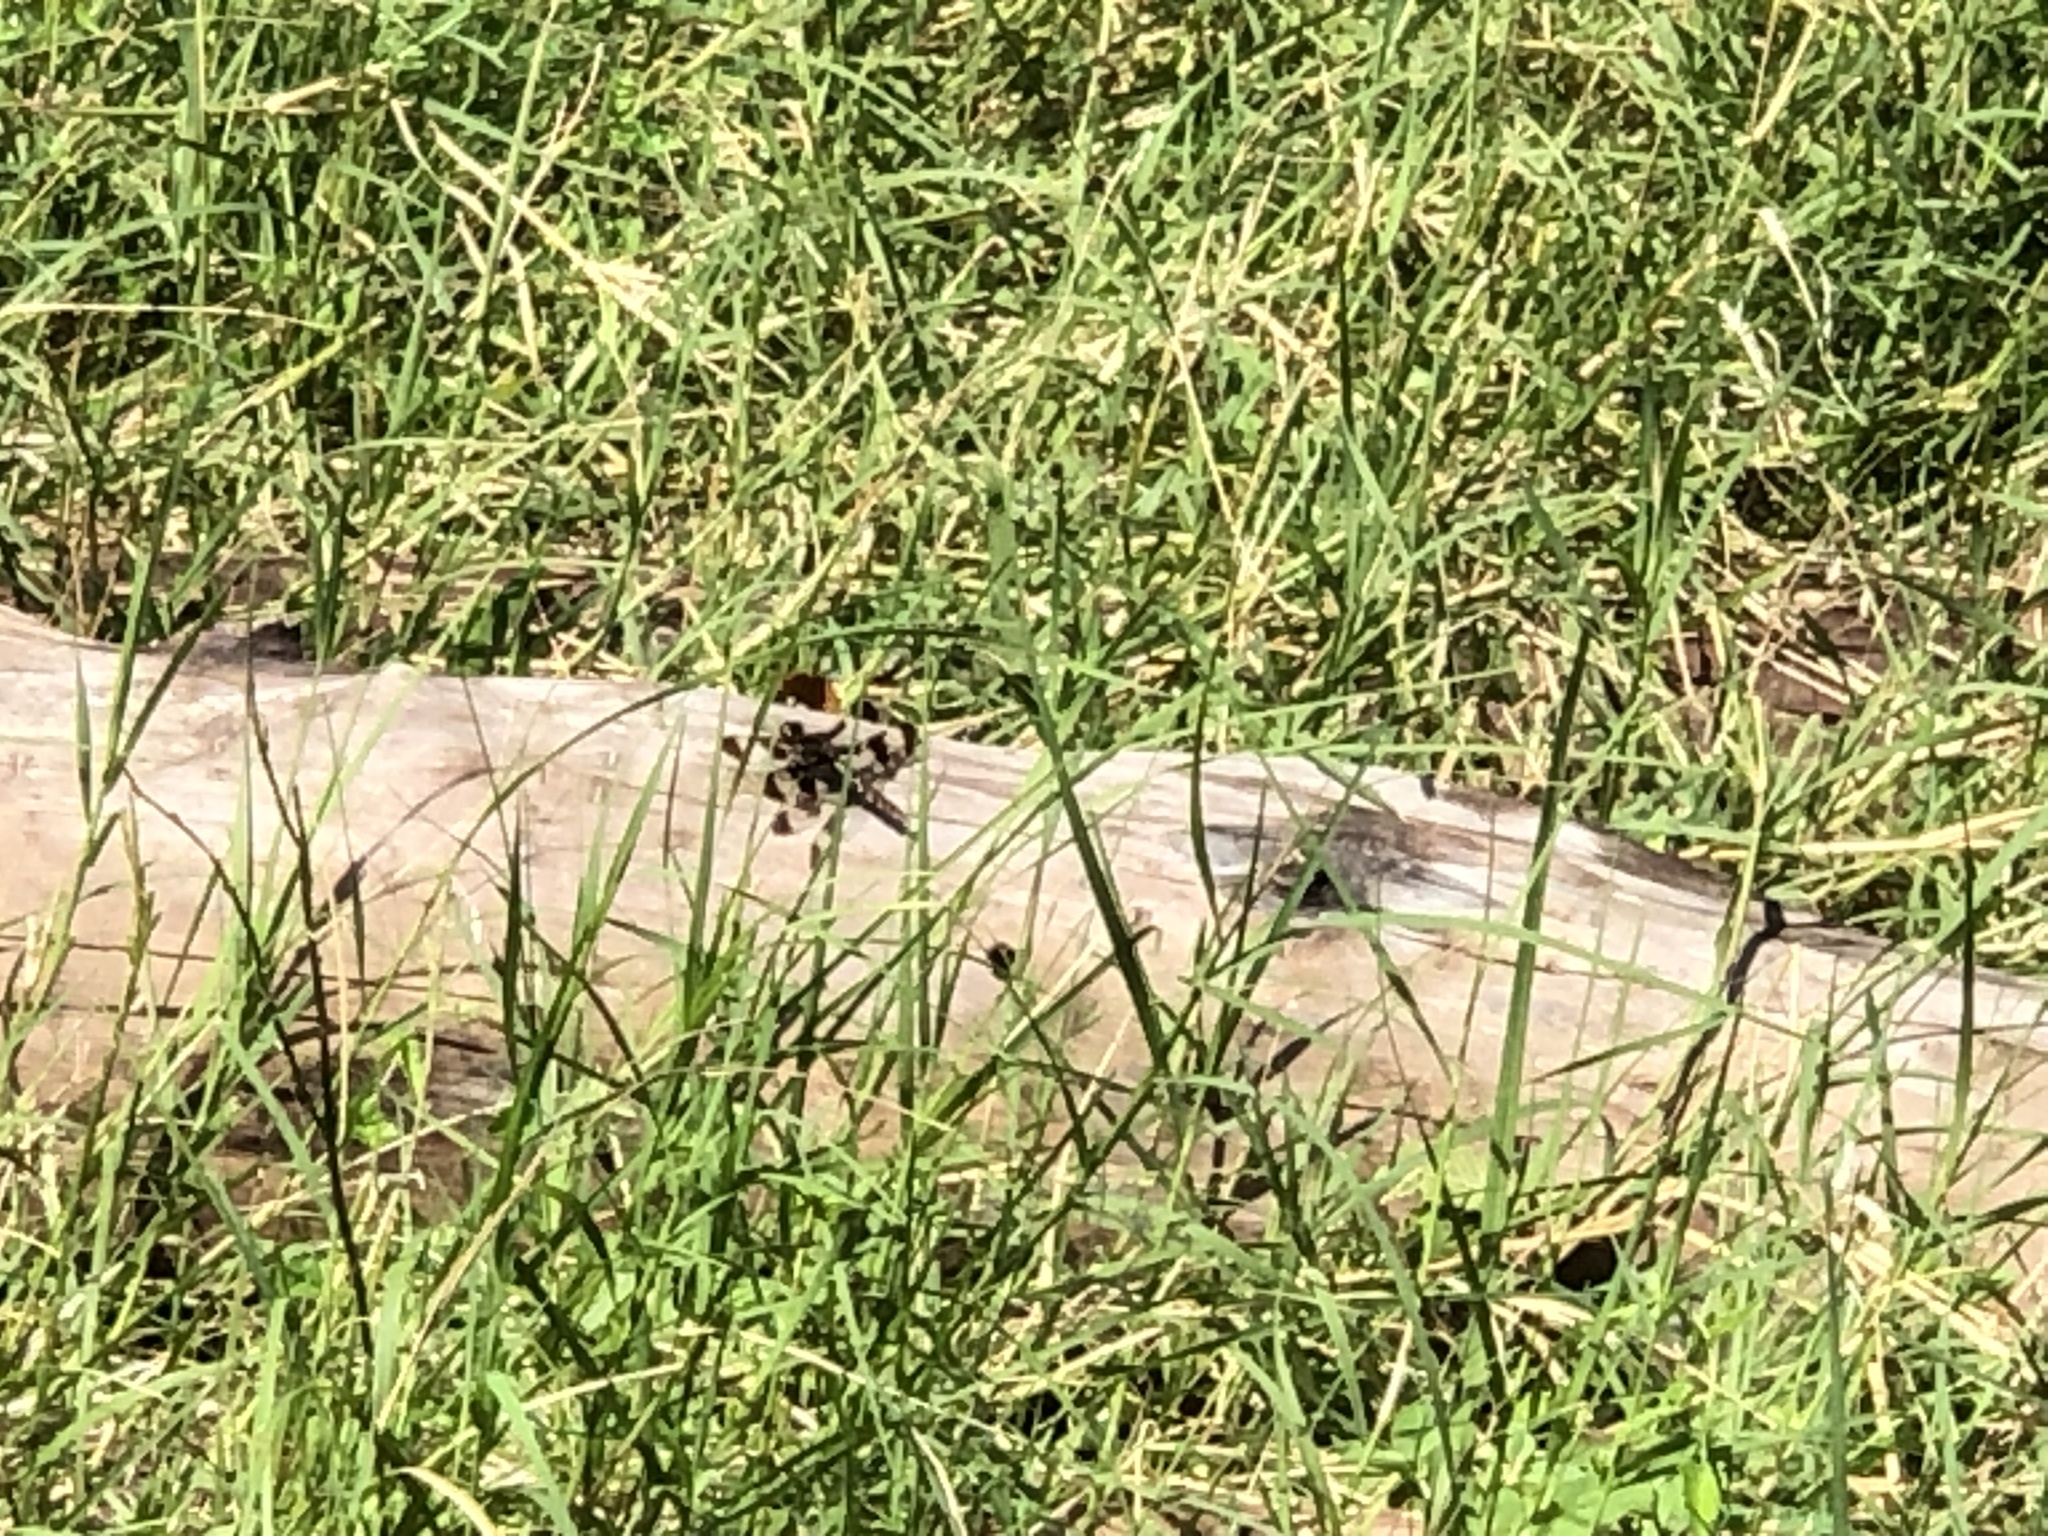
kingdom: Animalia
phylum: Arthropoda
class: Insecta
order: Odonata
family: Libellulidae
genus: Plathemis
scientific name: Plathemis lydia
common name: Common whitetail
